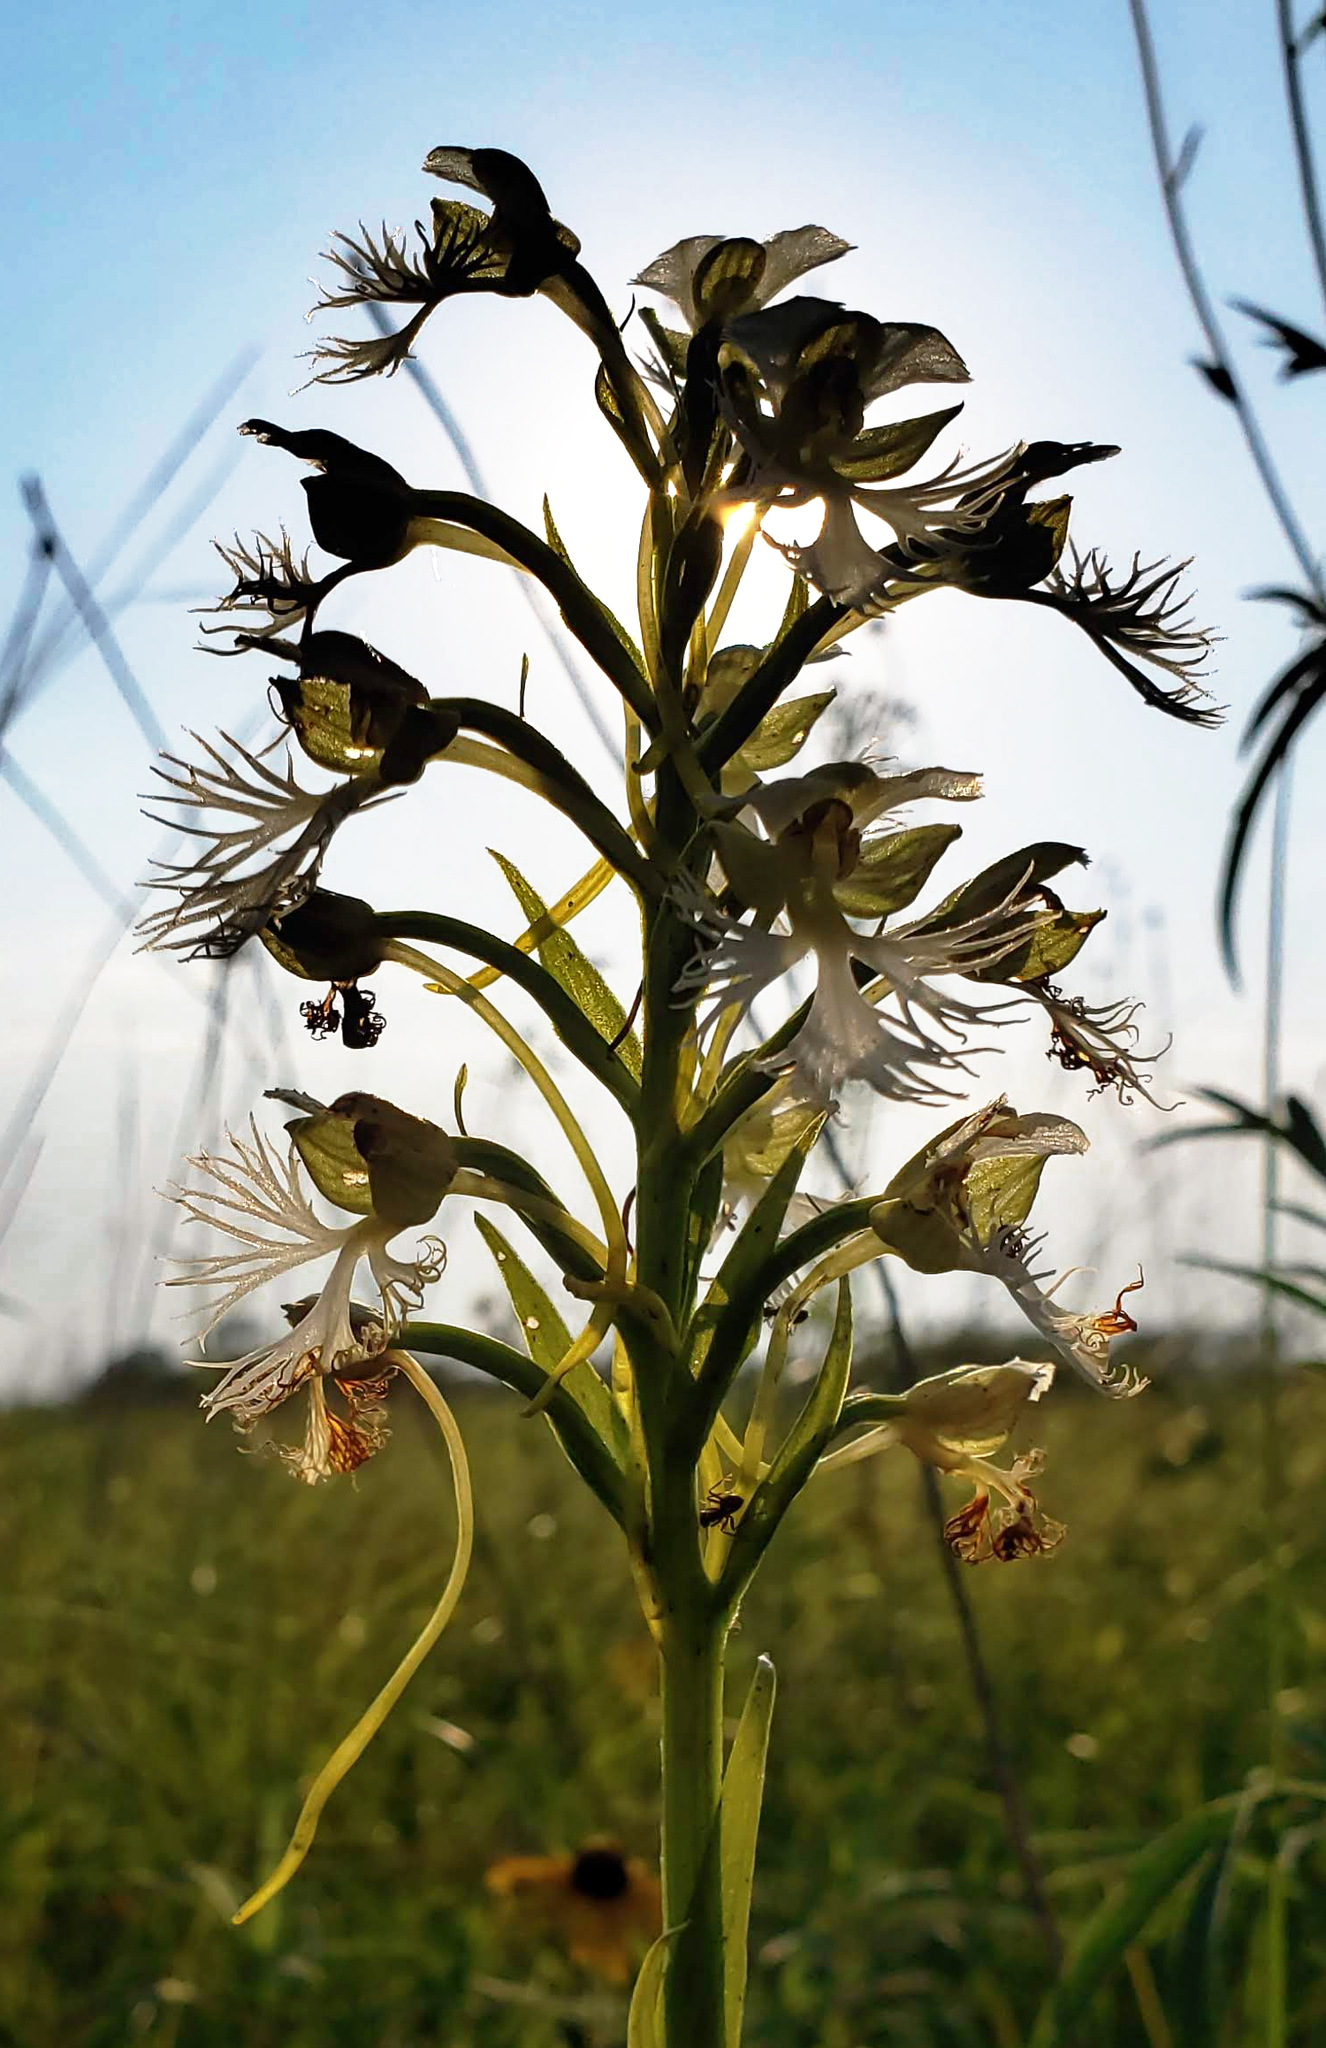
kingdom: Plantae
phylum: Tracheophyta
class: Liliopsida
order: Asparagales
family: Orchidaceae
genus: Platanthera
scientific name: Platanthera leucophaea
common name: Eastern prairie white-fringed orchid
